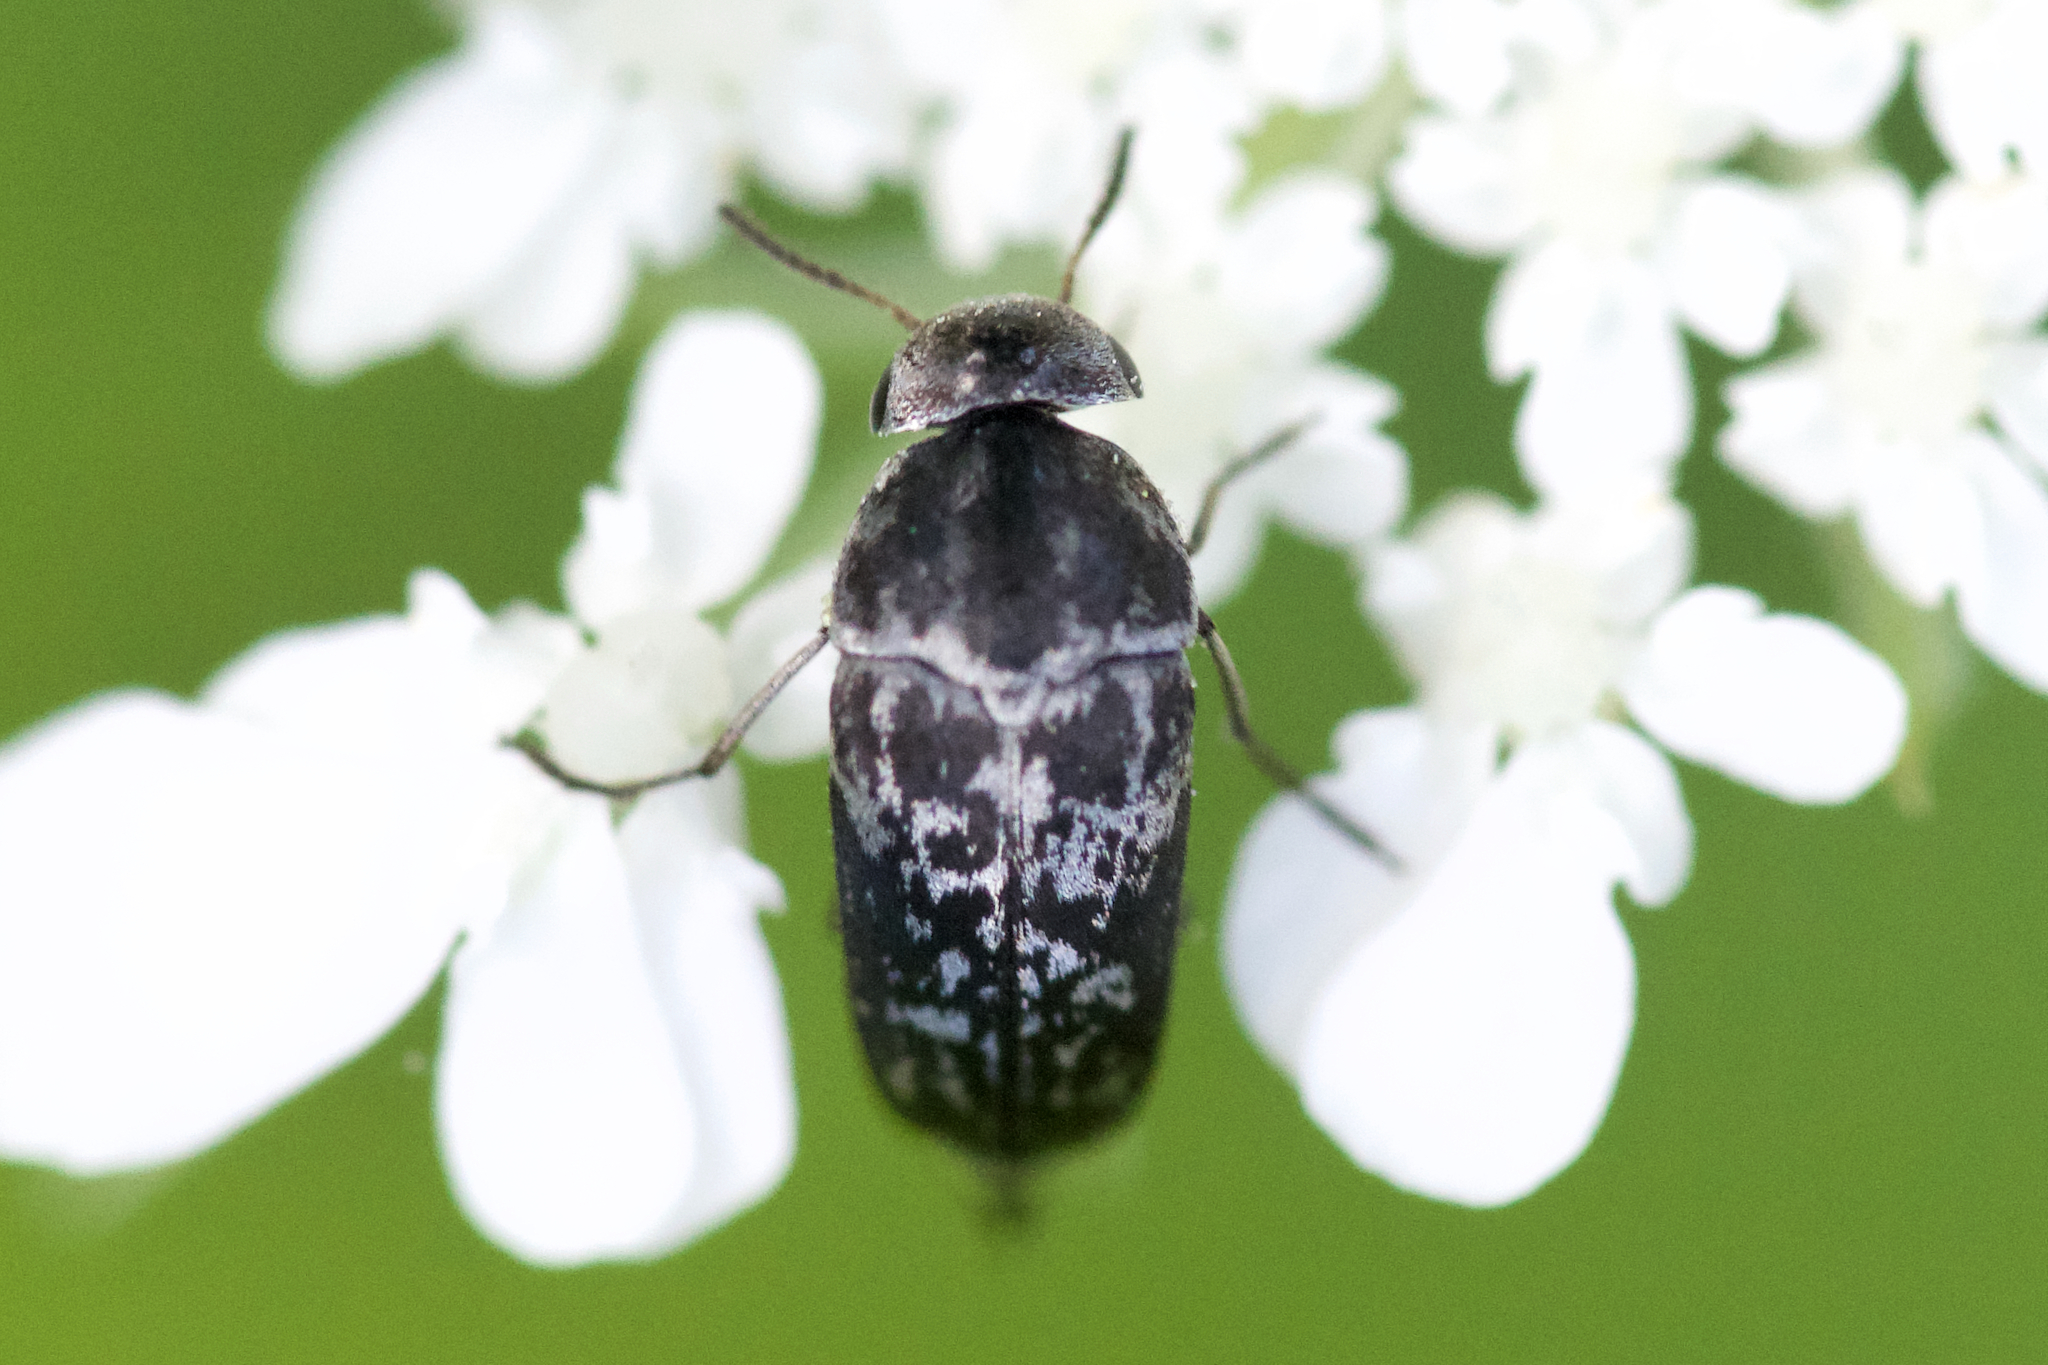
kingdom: Animalia
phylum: Arthropoda
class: Insecta
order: Coleoptera
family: Mordellidae
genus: Mordella
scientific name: Mordella marginata
